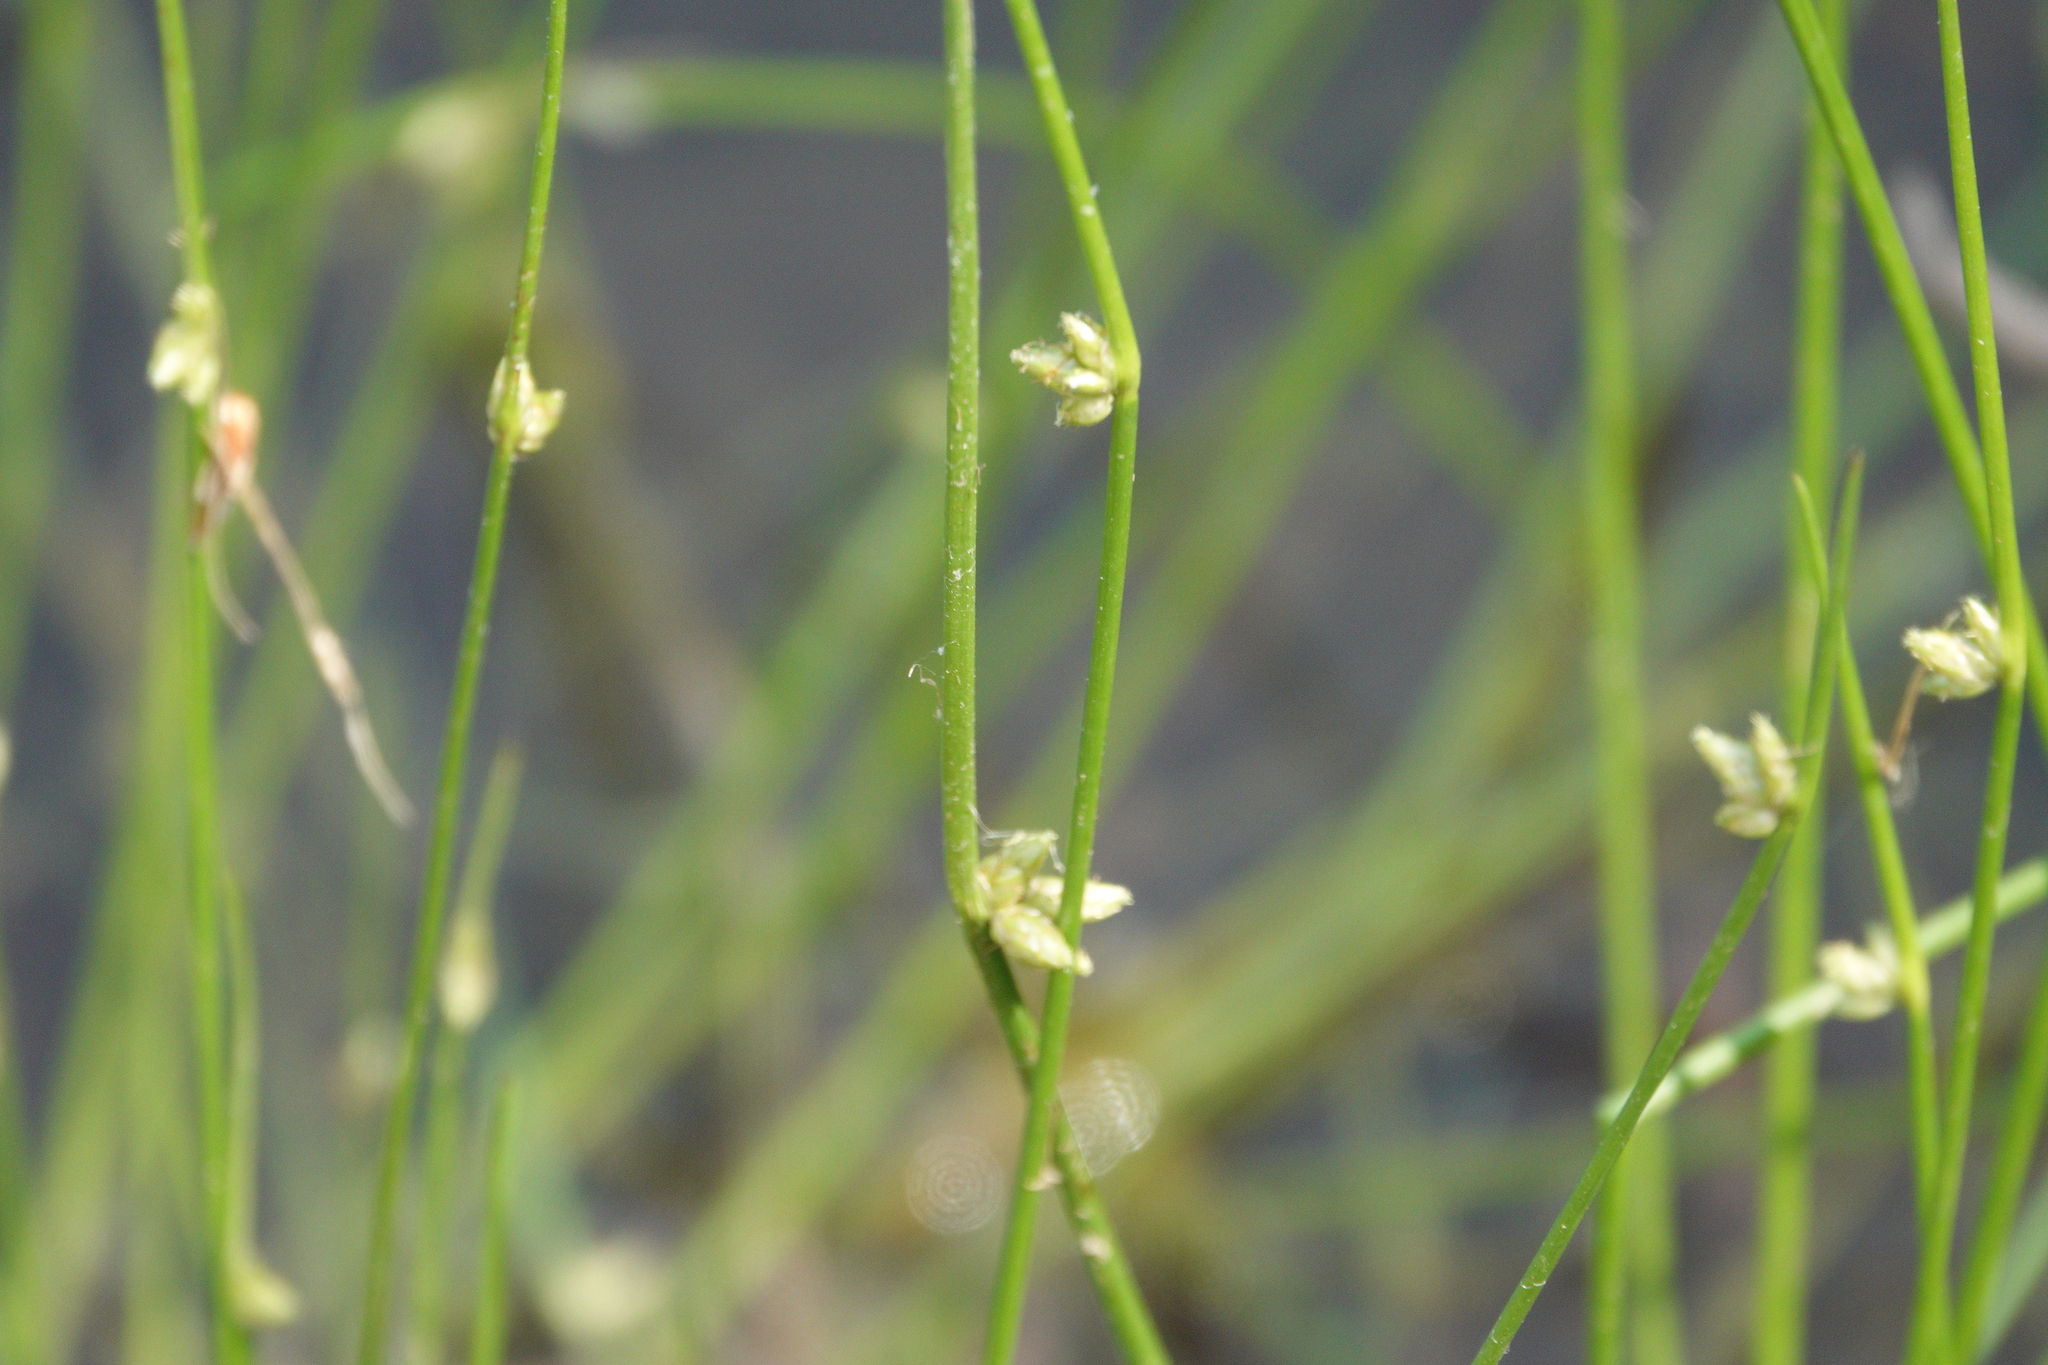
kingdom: Plantae
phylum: Tracheophyta
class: Liliopsida
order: Poales
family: Cyperaceae
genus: Schoenoplectiella
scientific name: Schoenoplectiella purshiana
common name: Weak-stalked bulrush
